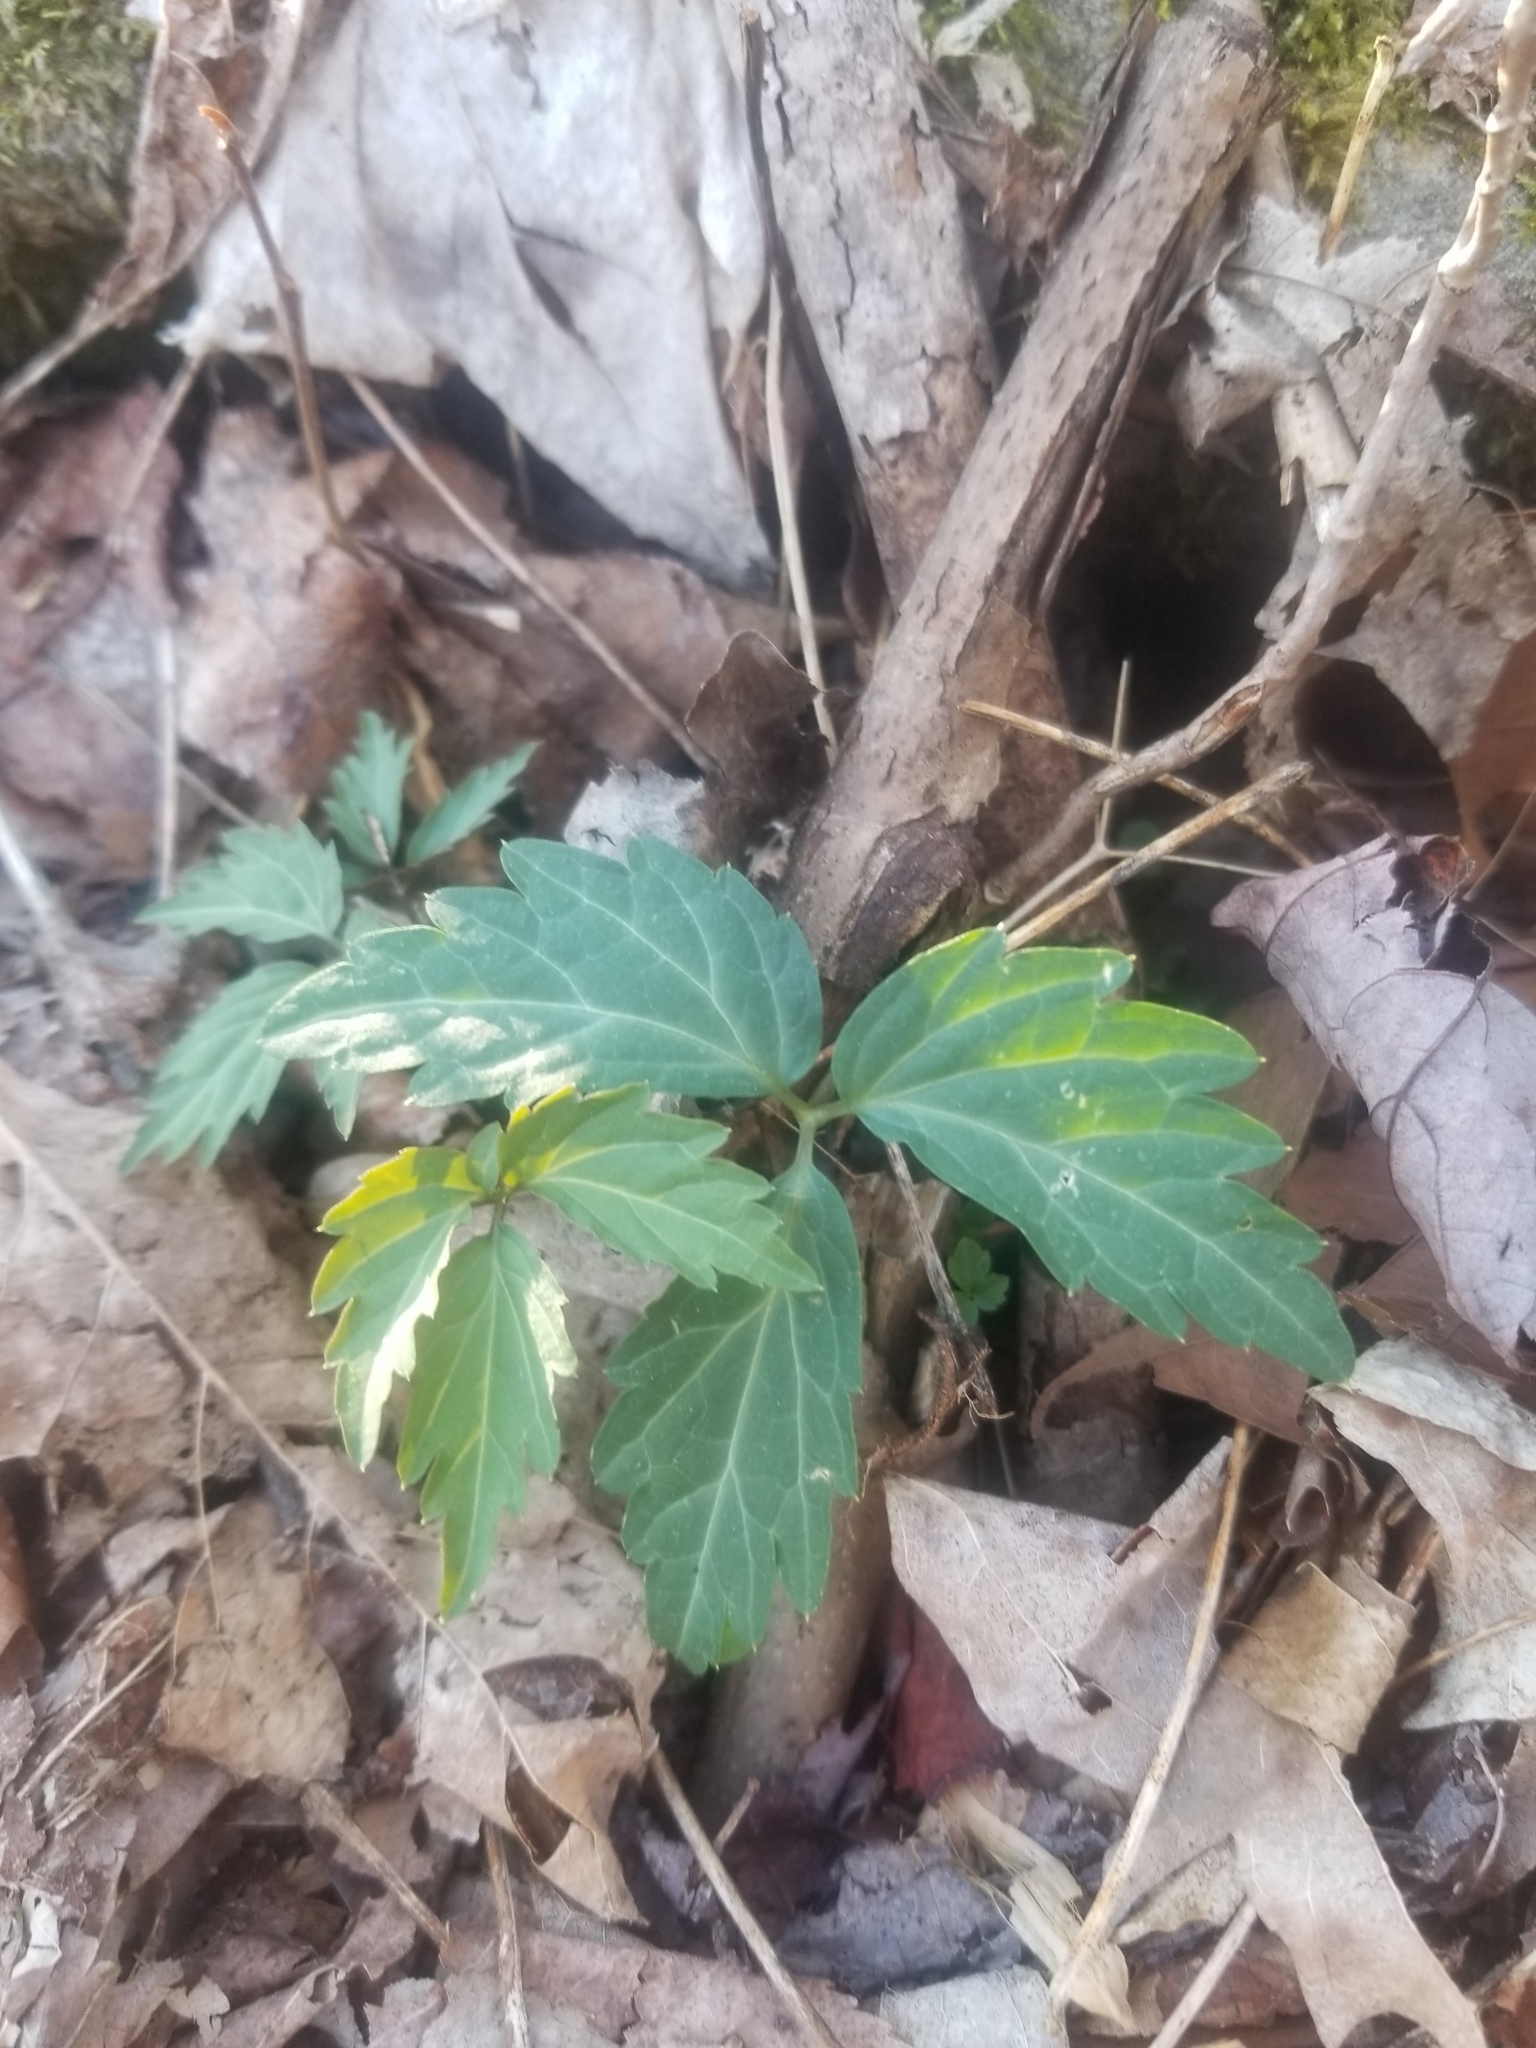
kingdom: Plantae
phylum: Tracheophyta
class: Magnoliopsida
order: Brassicales
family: Brassicaceae
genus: Cardamine
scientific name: Cardamine diphylla
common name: Broad-leaved toothwort
